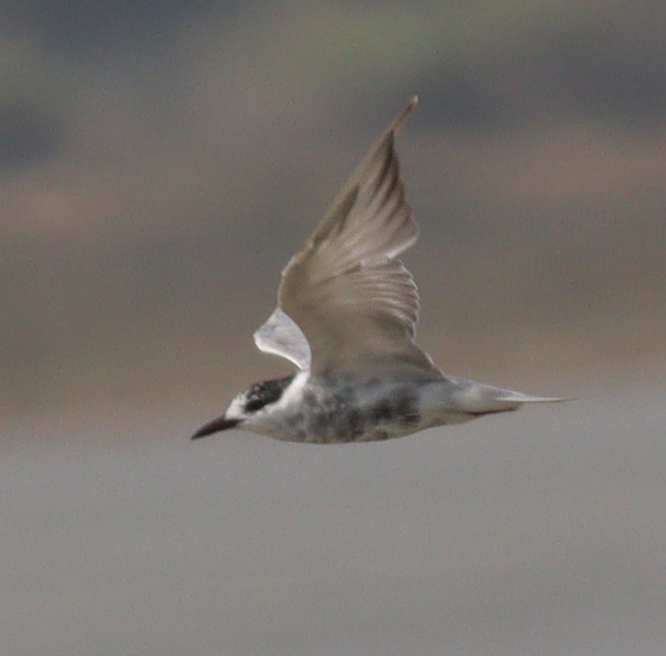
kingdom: Animalia
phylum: Chordata
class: Aves
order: Charadriiformes
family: Laridae
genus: Chlidonias
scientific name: Chlidonias hybrida
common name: Whiskered tern
